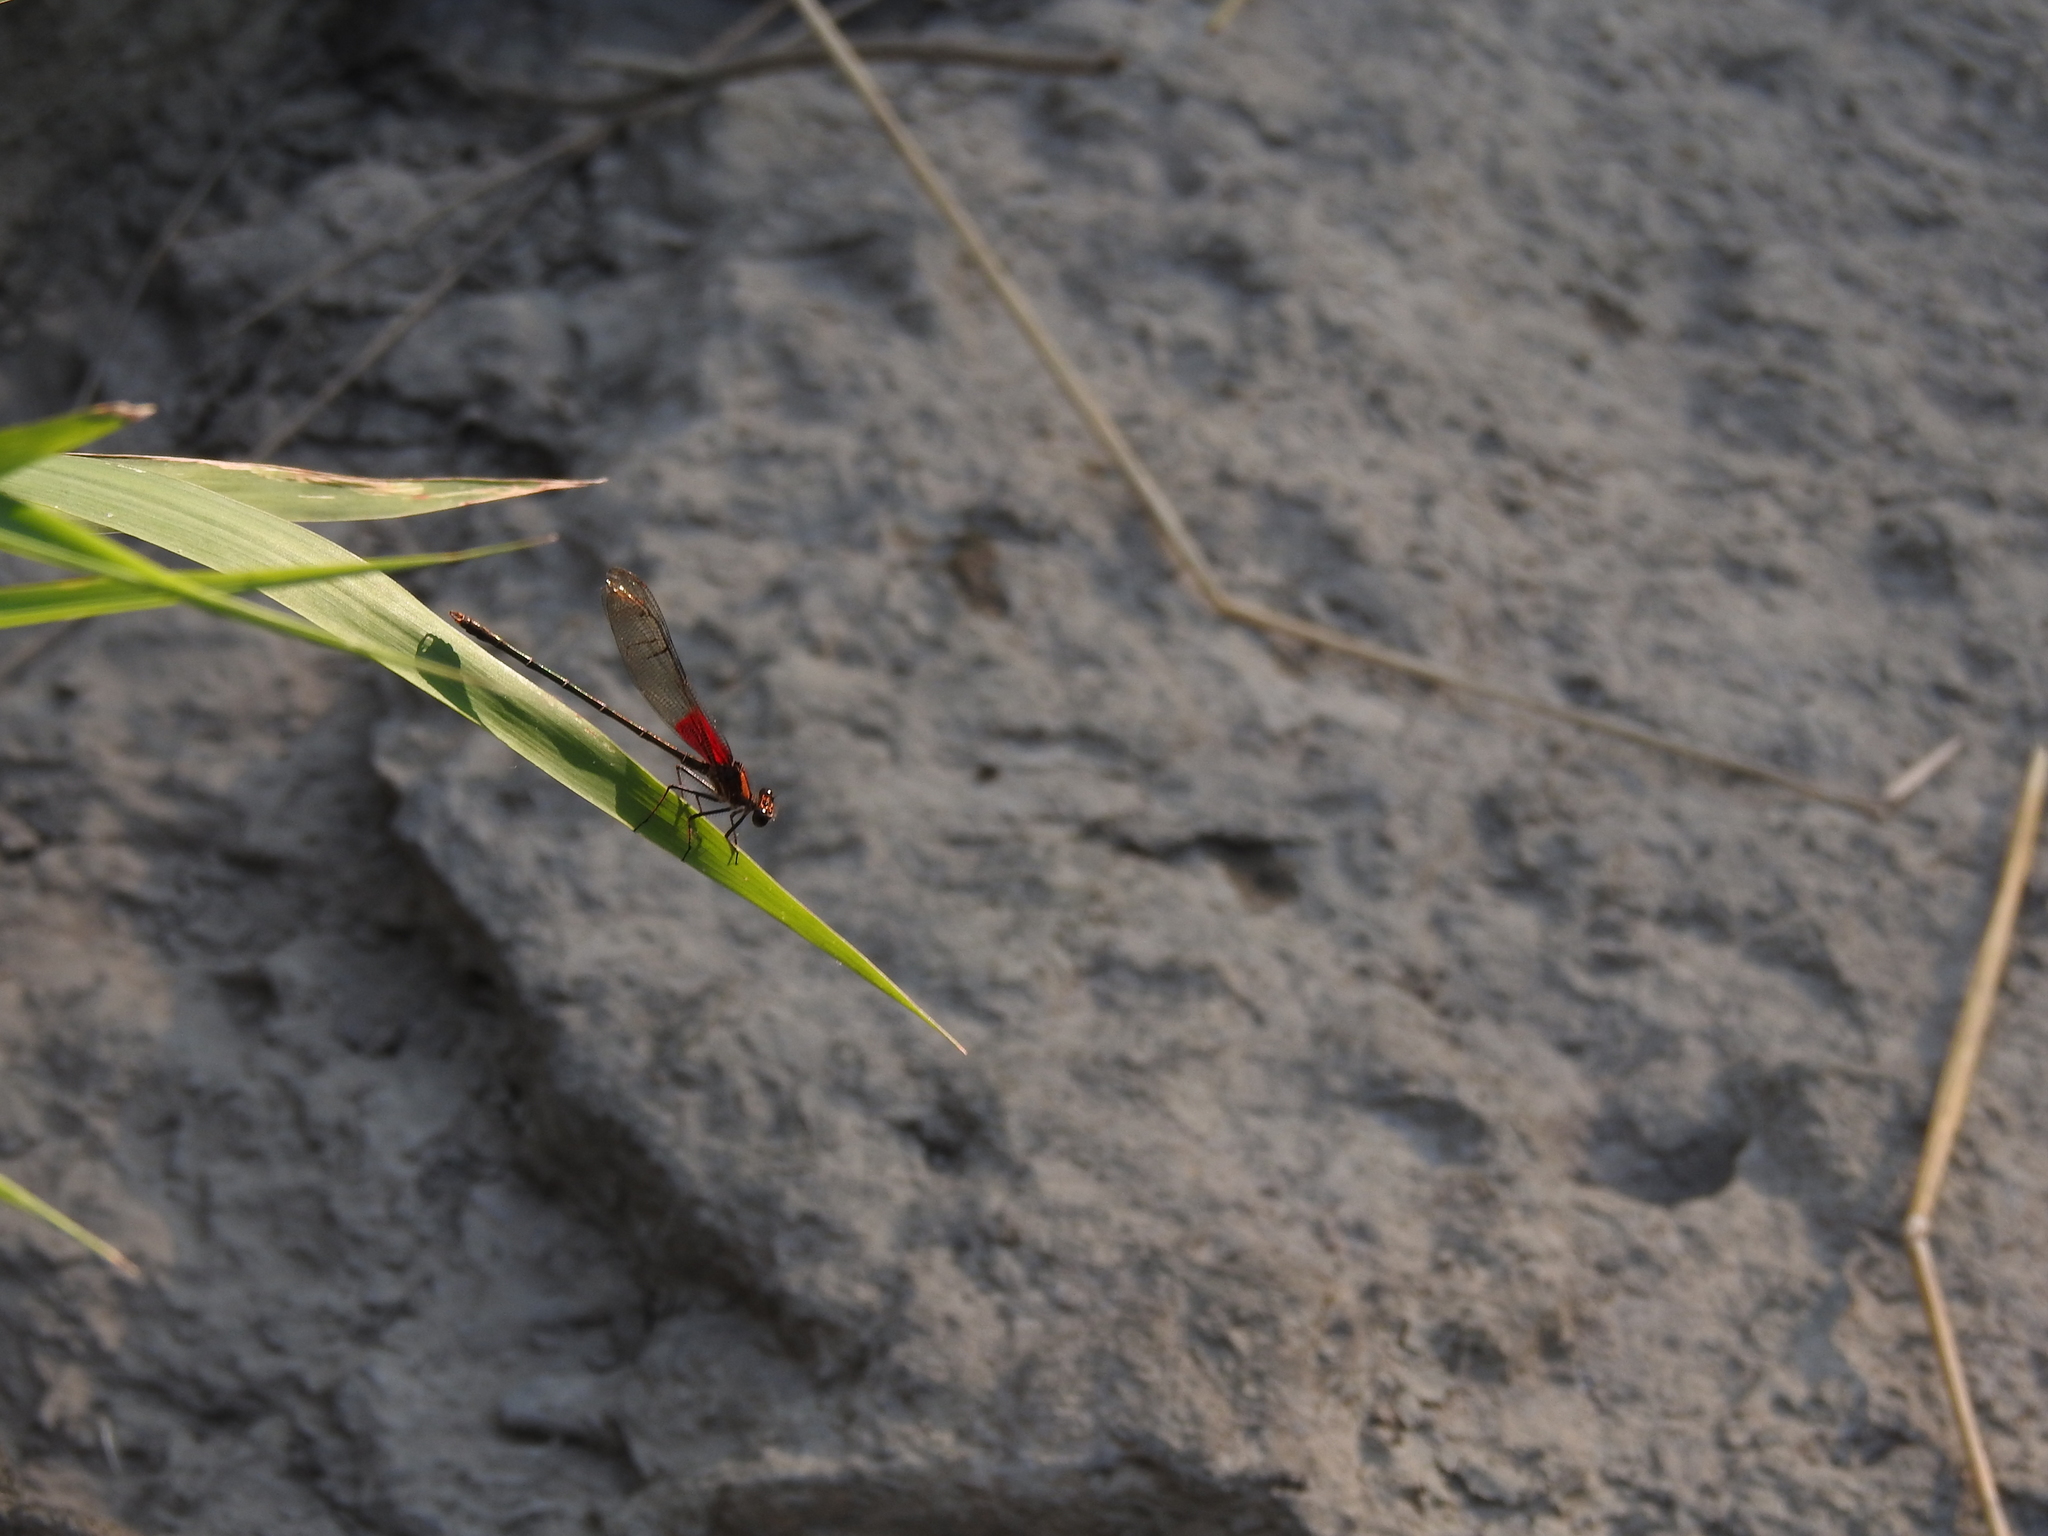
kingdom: Animalia
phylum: Arthropoda
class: Insecta
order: Odonata
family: Calopterygidae
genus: Hetaerina
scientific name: Hetaerina americana
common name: American rubyspot
